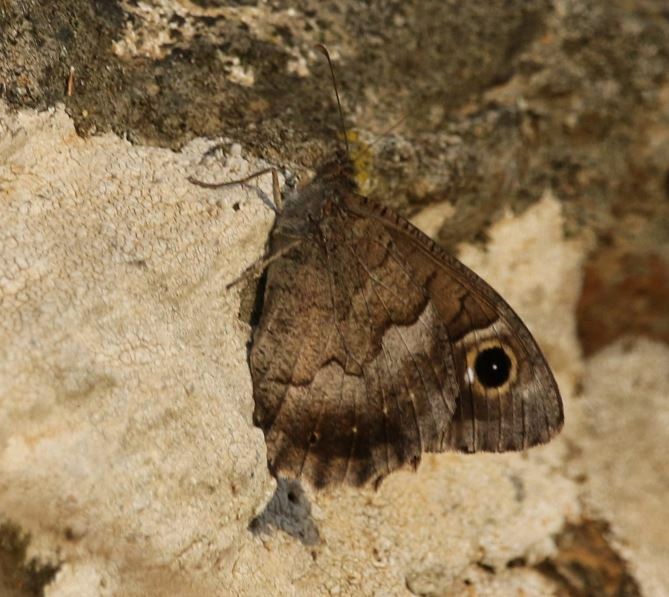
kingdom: Animalia
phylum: Arthropoda
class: Insecta
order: Lepidoptera
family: Nymphalidae
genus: Hipparchia
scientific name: Hipparchia statilinus
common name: Tree grayling
